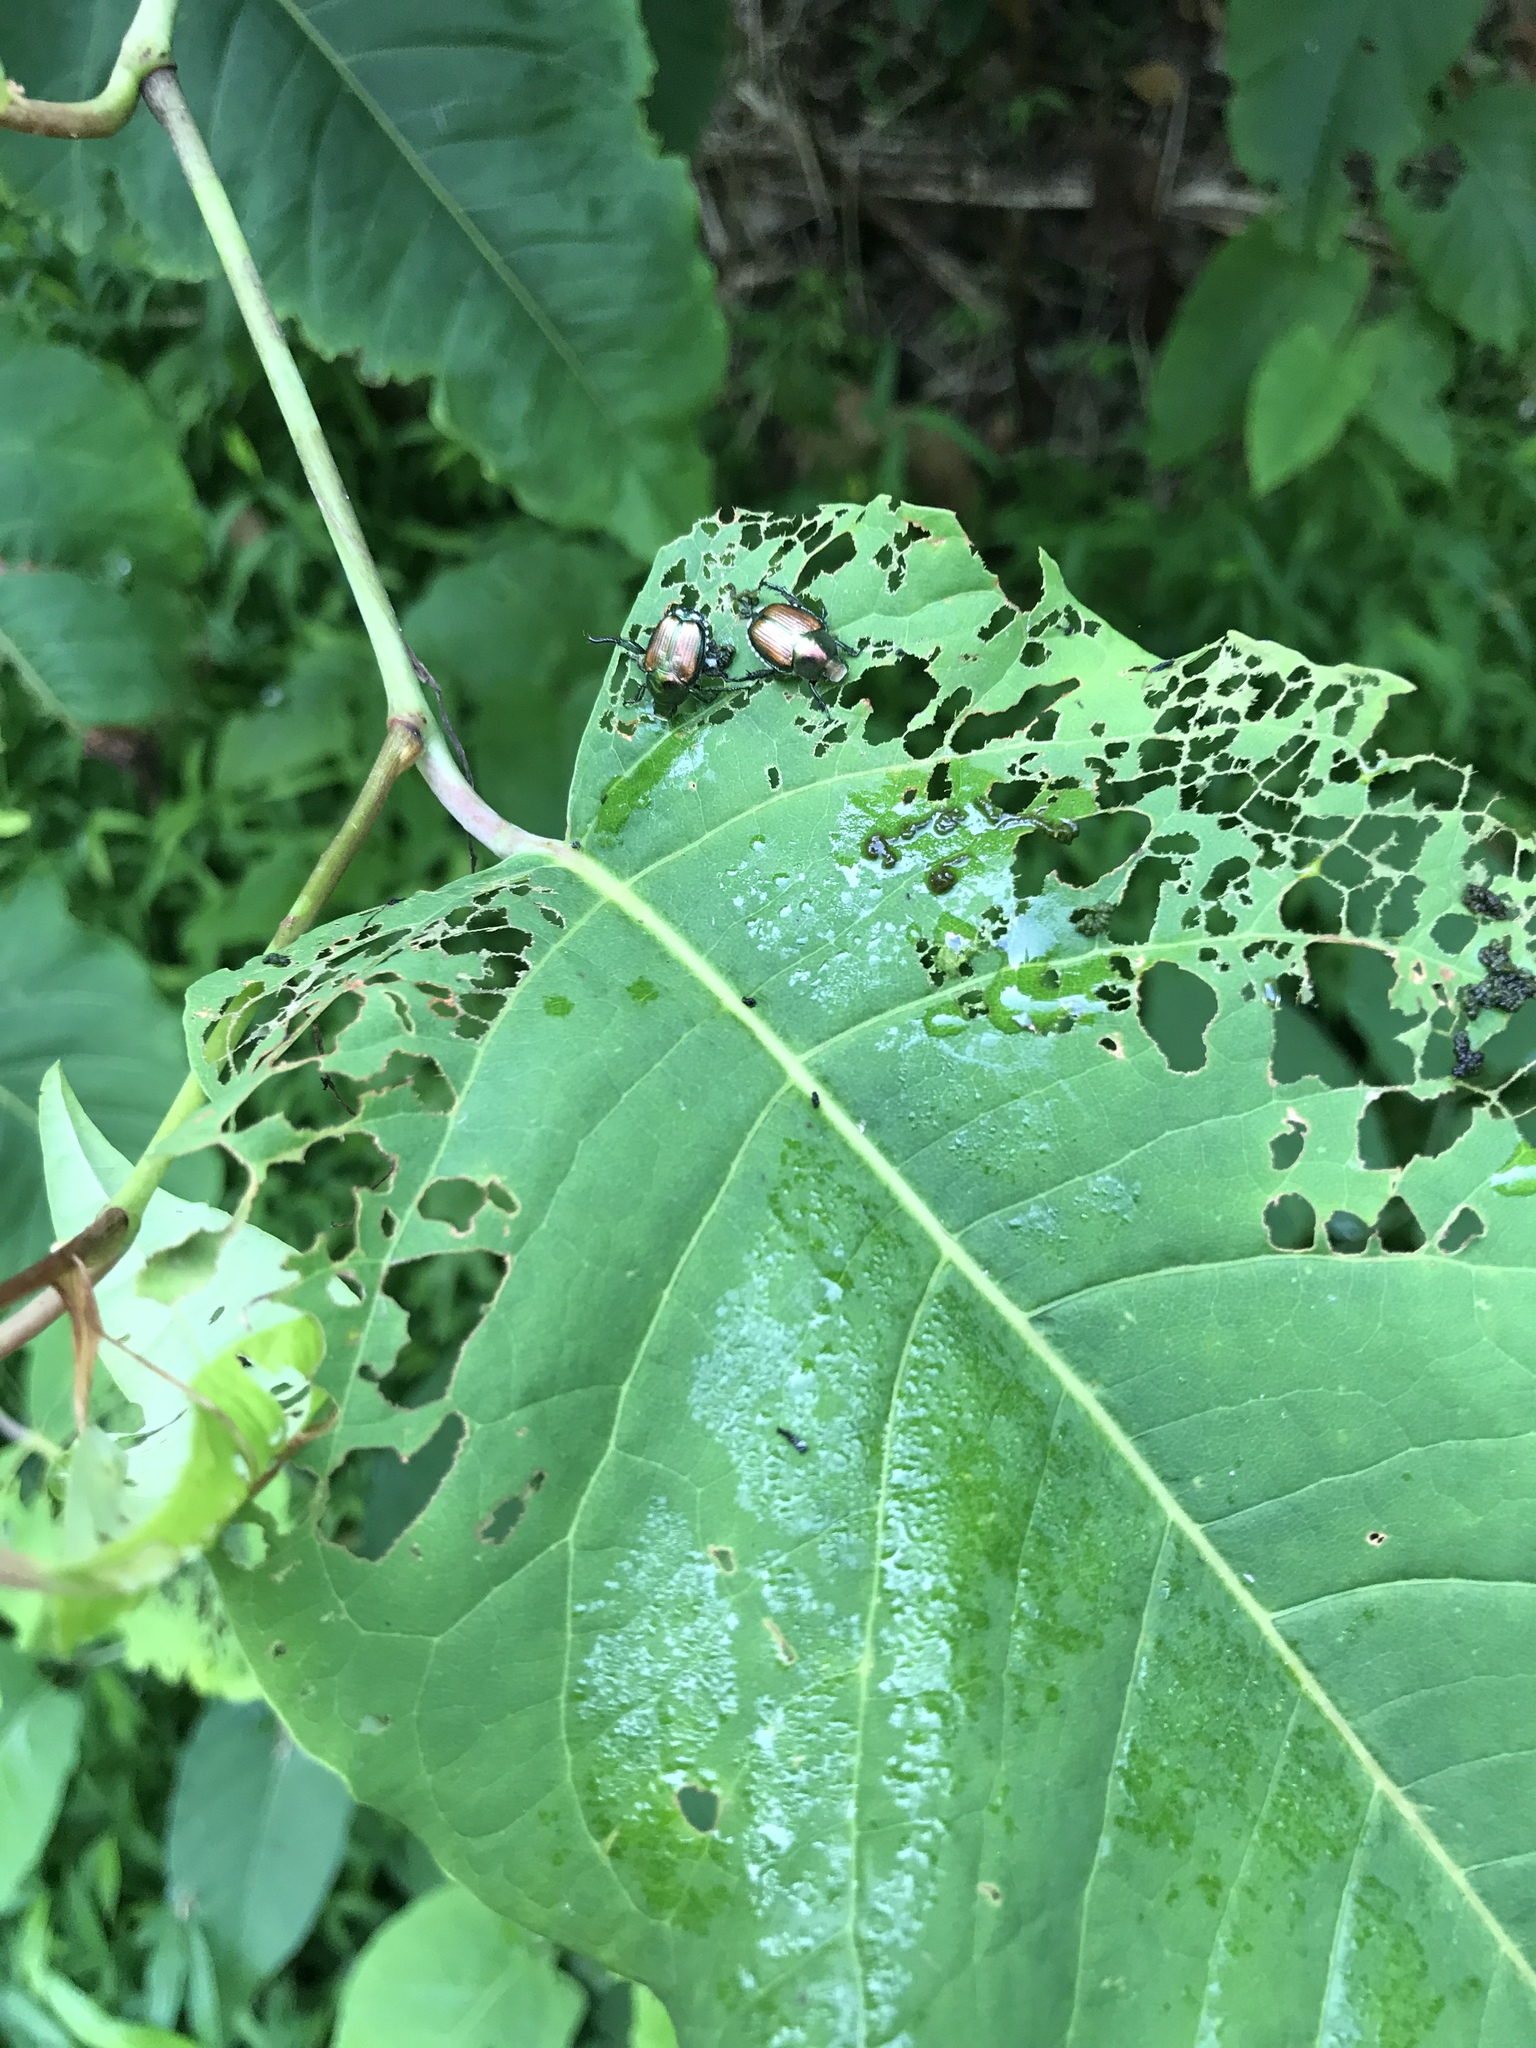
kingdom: Animalia
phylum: Arthropoda
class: Insecta
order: Coleoptera
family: Scarabaeidae
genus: Popillia
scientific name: Popillia japonica
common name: Japanese beetle
